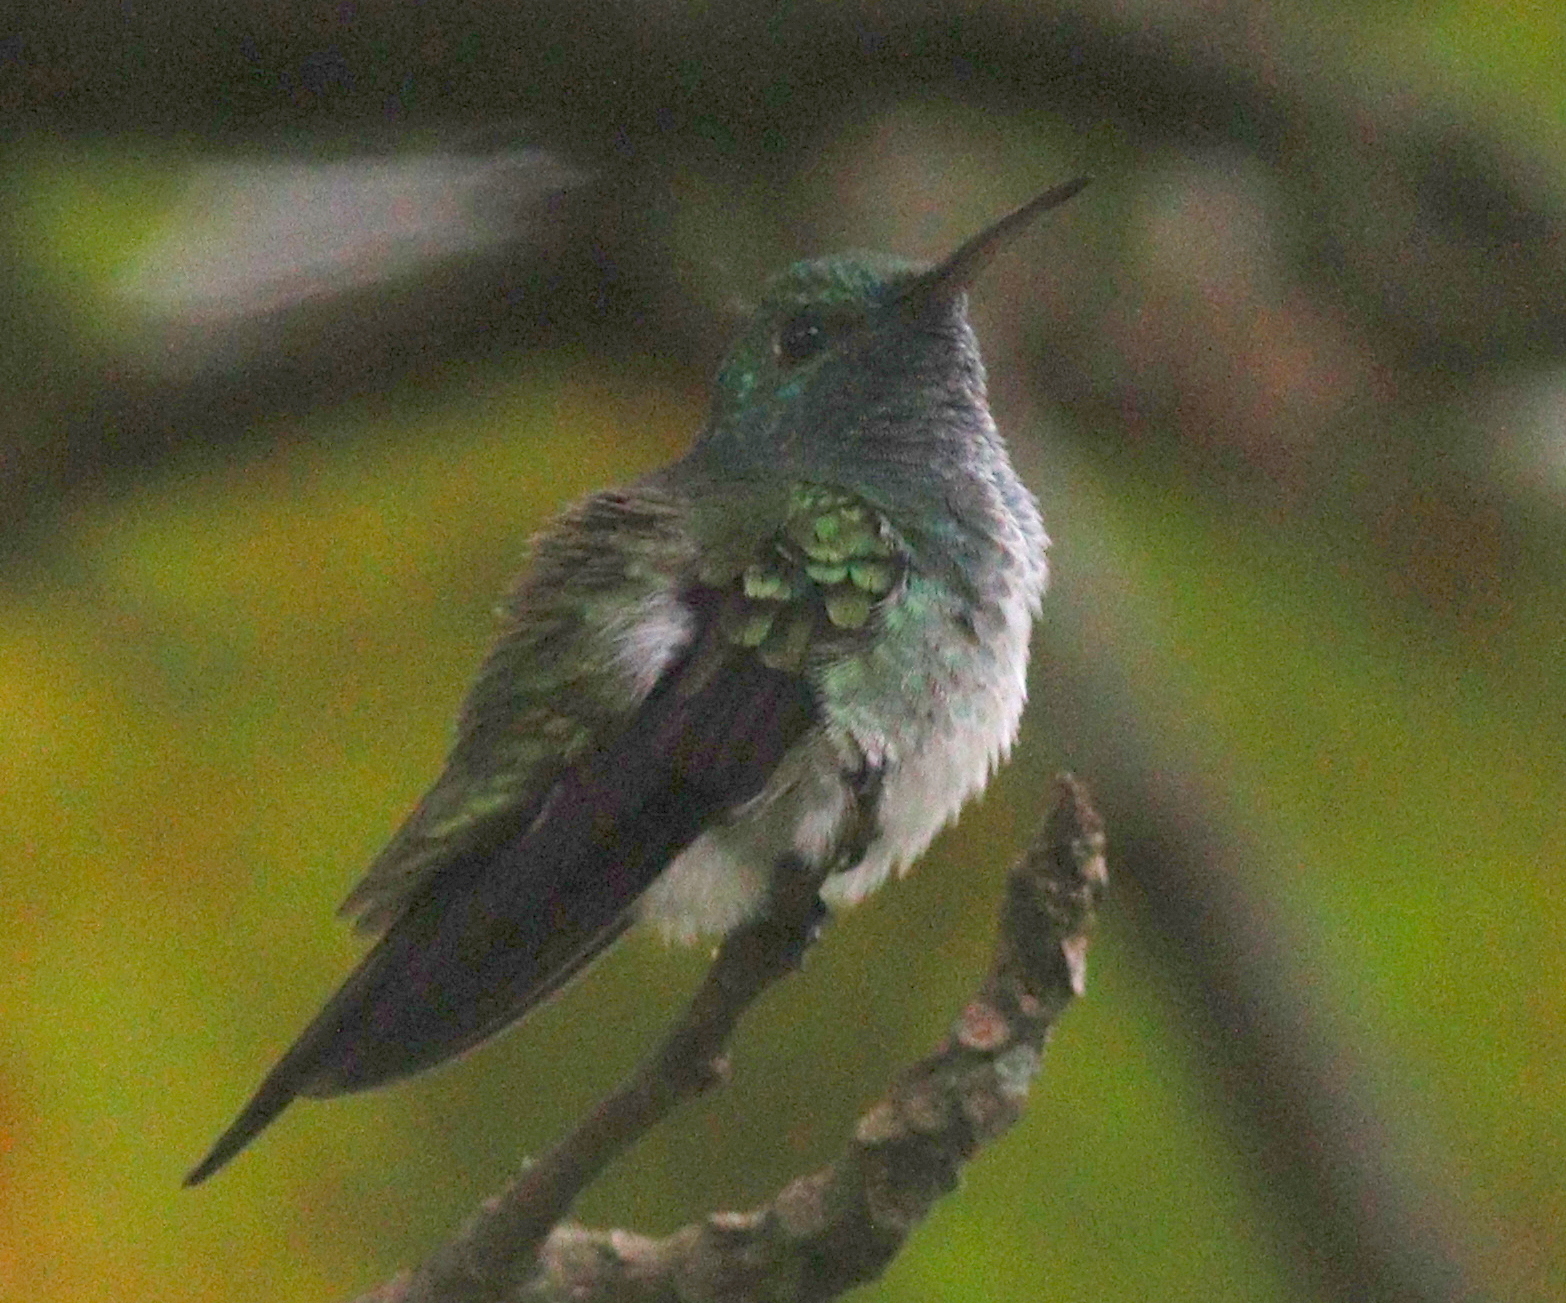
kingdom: Animalia
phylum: Chordata
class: Aves
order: Apodiformes
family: Trochilidae
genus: Polyerata
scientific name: Polyerata decora
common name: Charming hummingbird
